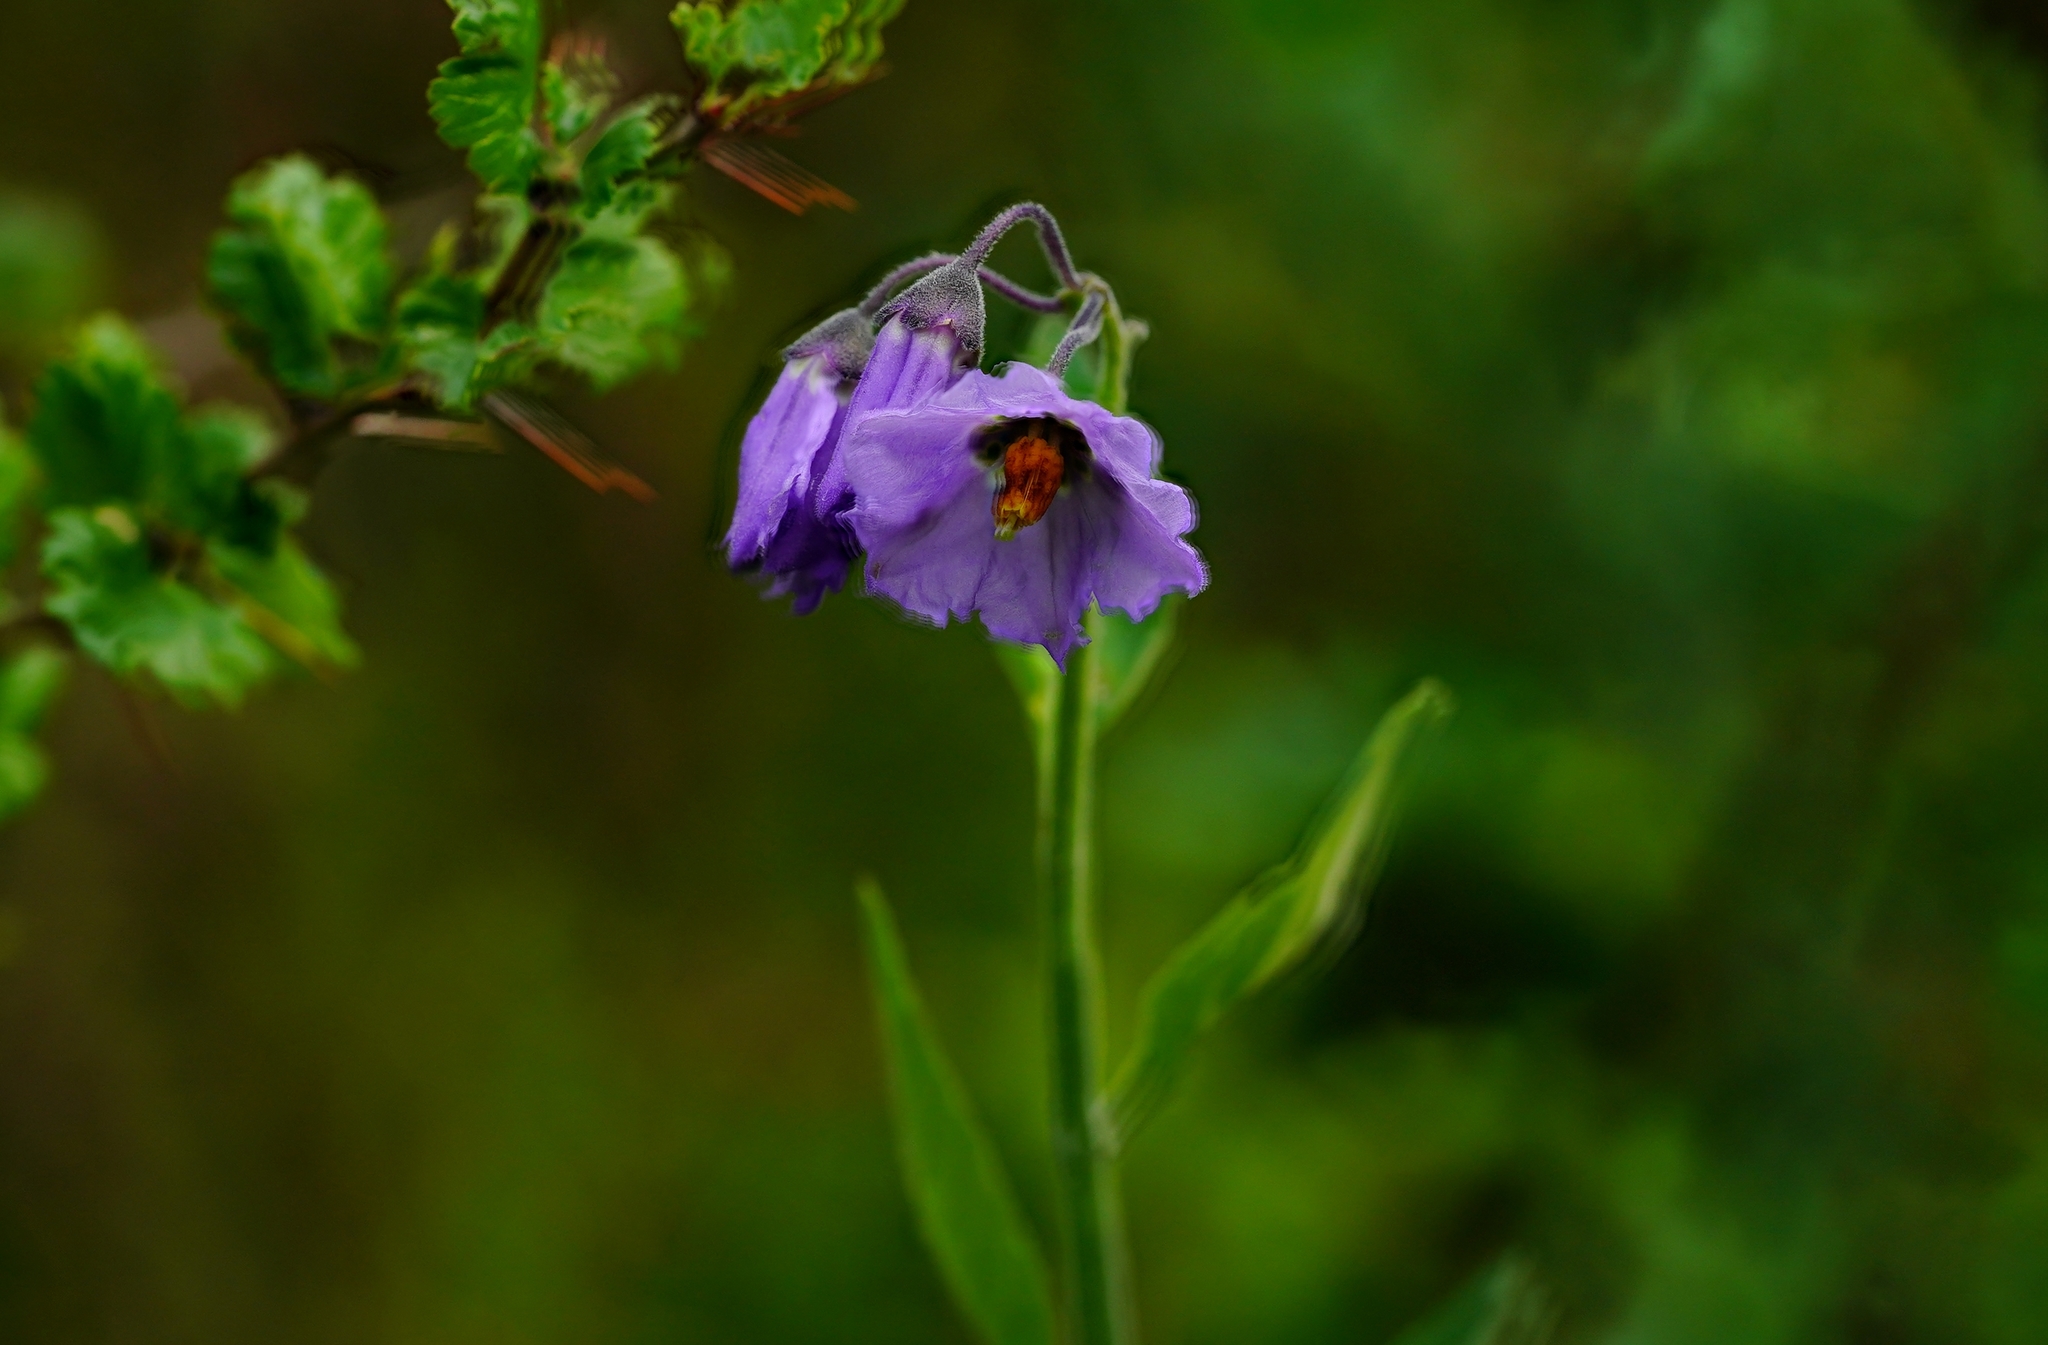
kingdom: Plantae
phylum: Tracheophyta
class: Magnoliopsida
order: Solanales
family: Solanaceae
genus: Solanum
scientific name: Solanum umbelliferum
